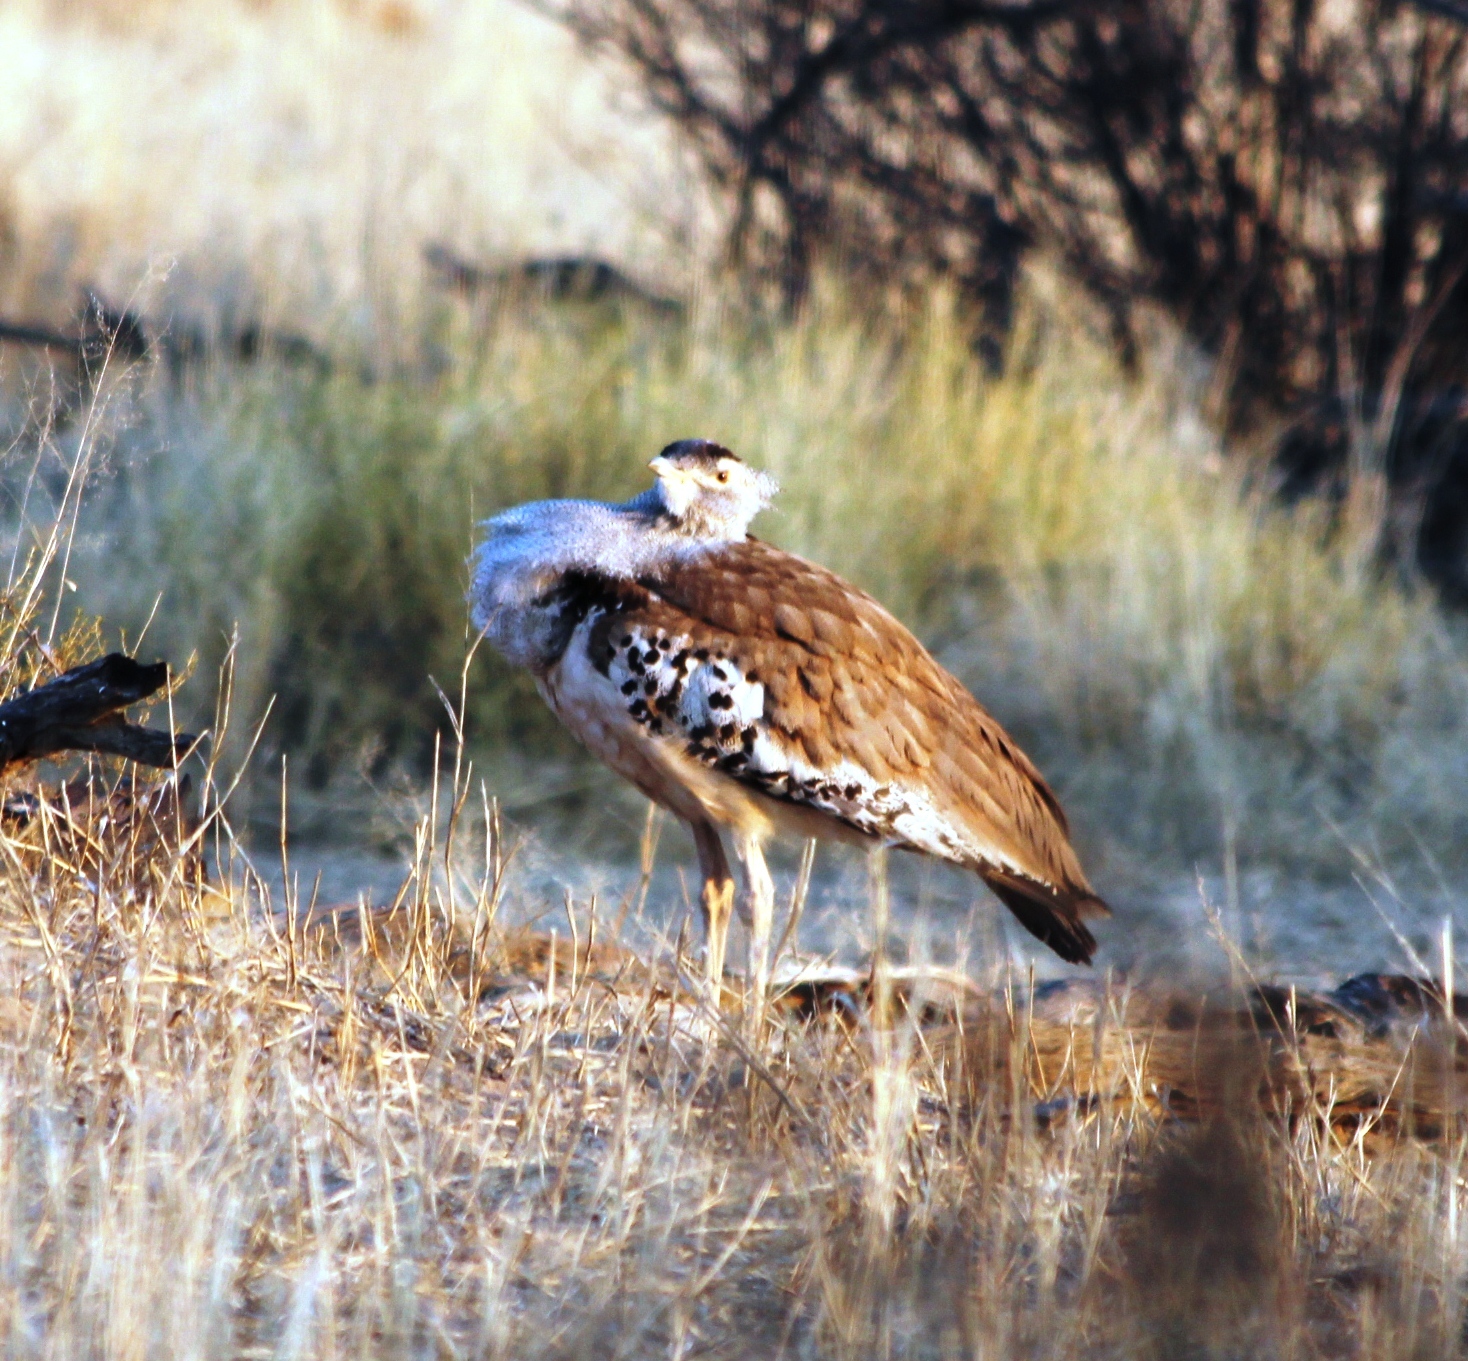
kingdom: Animalia
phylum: Chordata
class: Aves
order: Otidiformes
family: Otididae
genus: Ardeotis
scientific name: Ardeotis kori
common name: Kori bustard
